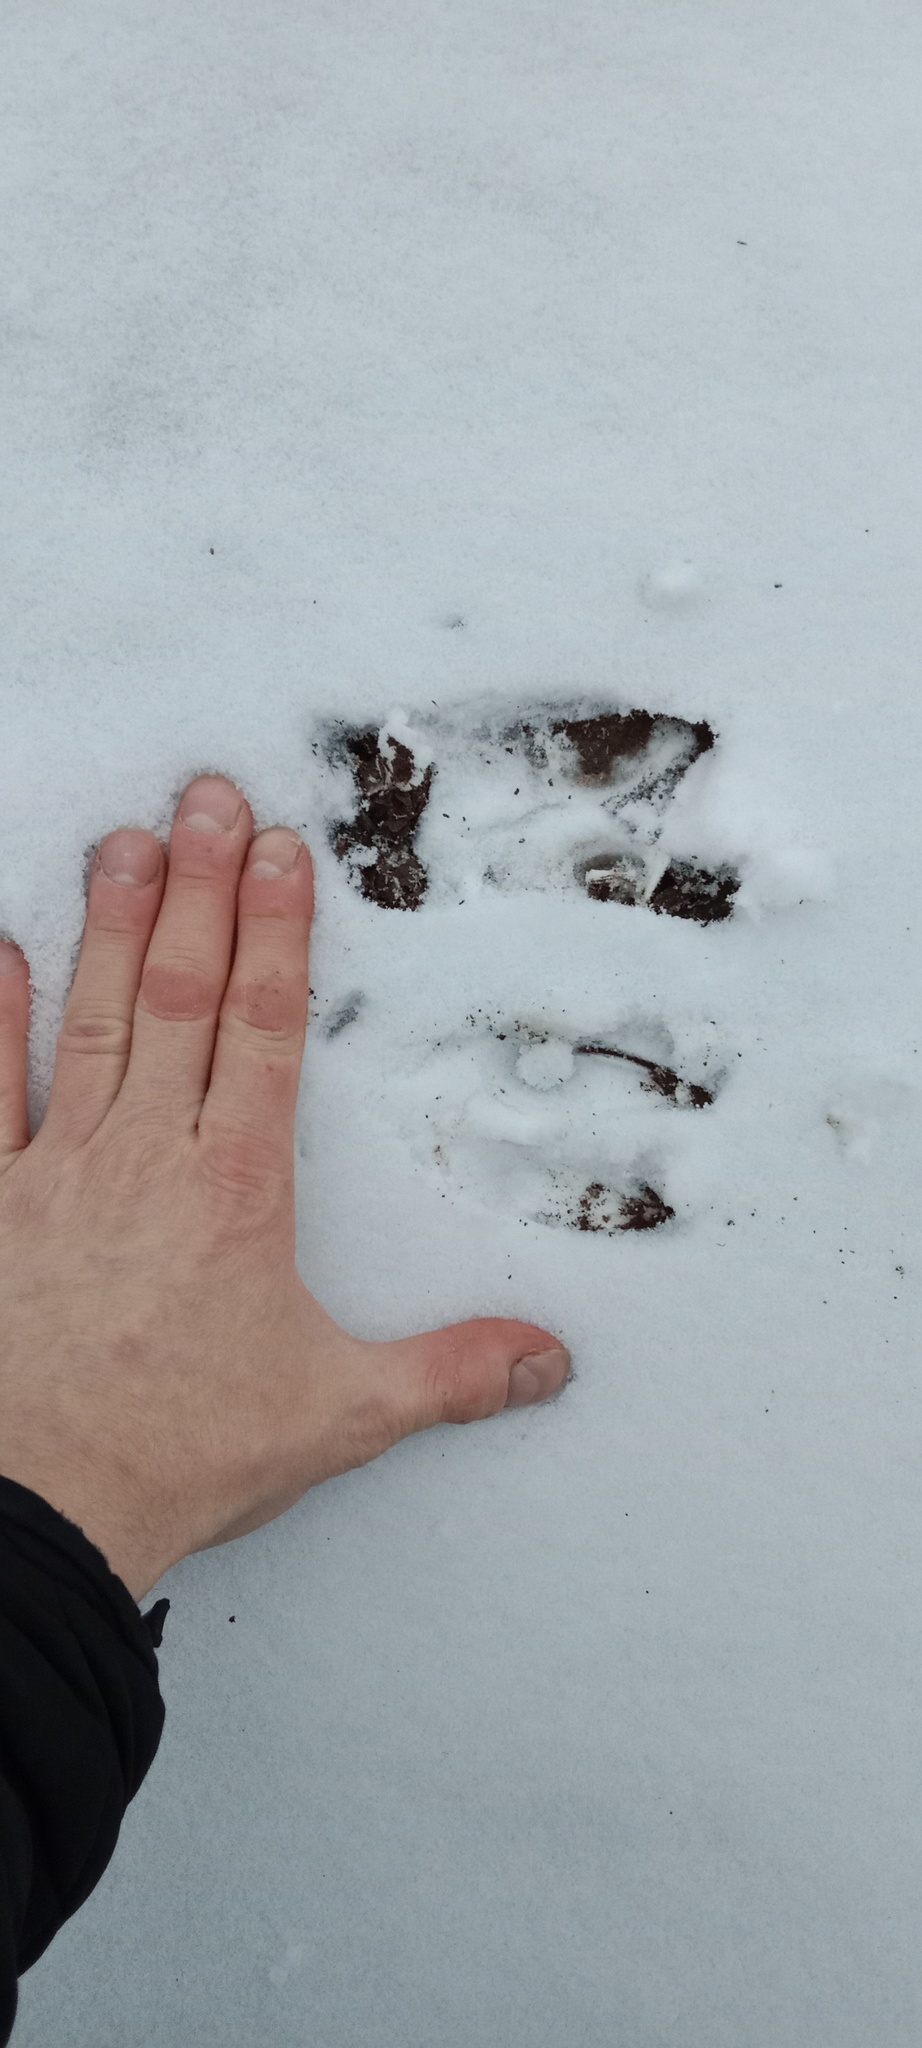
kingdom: Animalia
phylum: Chordata
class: Mammalia
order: Artiodactyla
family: Cervidae
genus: Capreolus
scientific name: Capreolus capreolus
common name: Western roe deer
